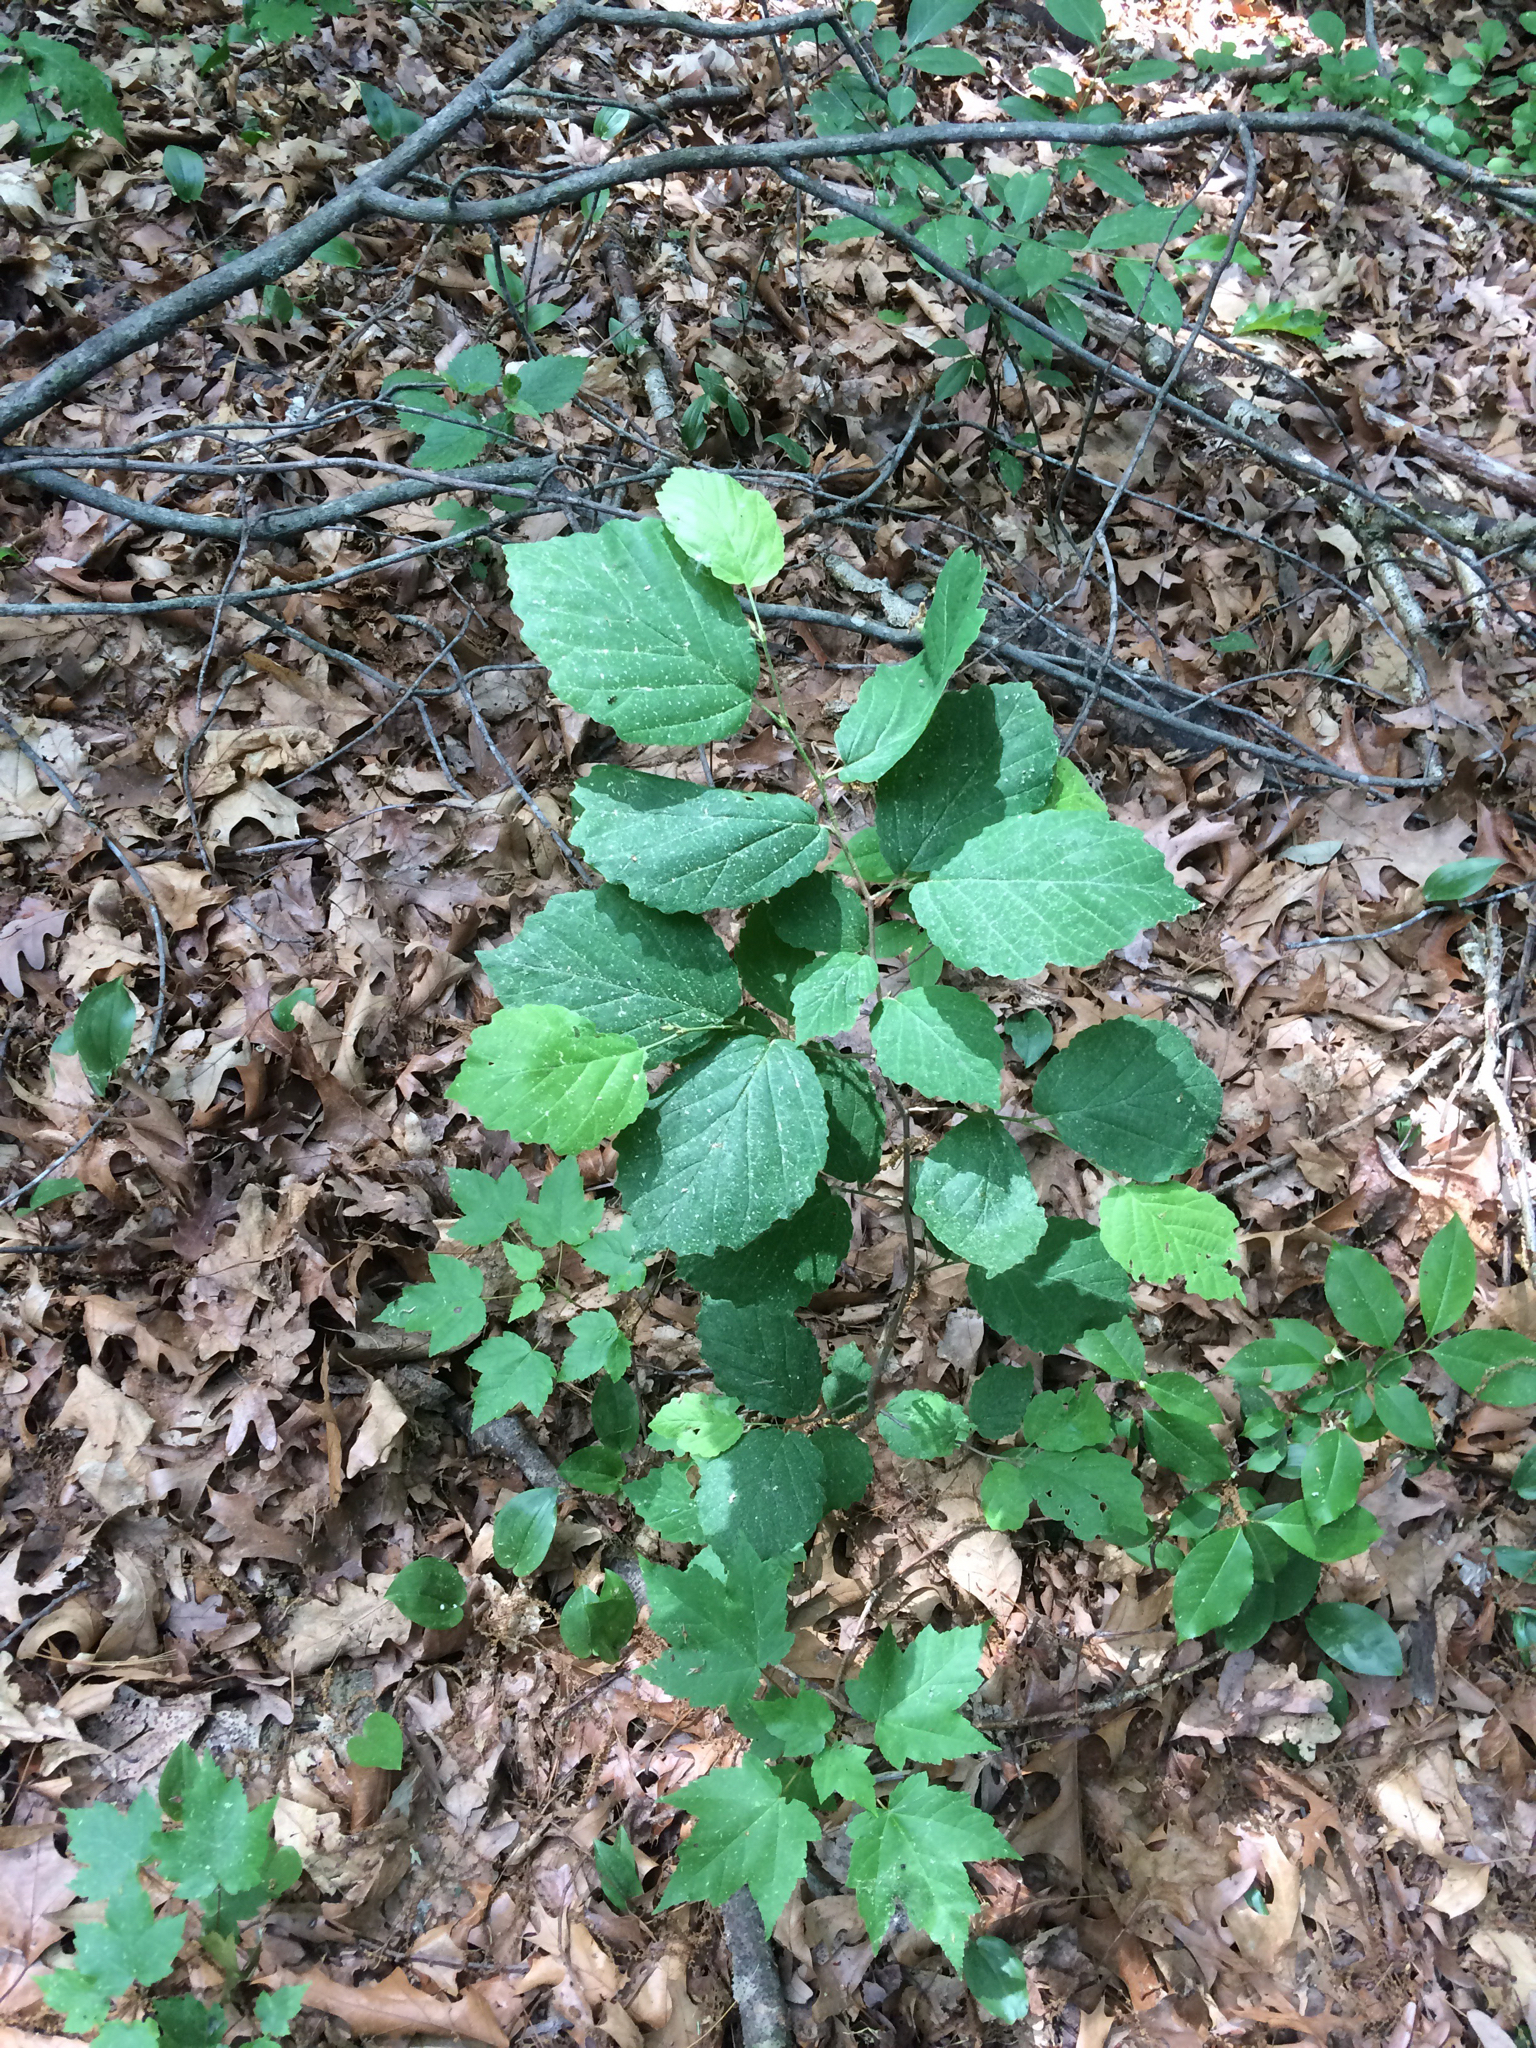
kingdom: Plantae
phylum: Tracheophyta
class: Magnoliopsida
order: Saxifragales
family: Hamamelidaceae
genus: Hamamelis
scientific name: Hamamelis virginiana
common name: Witch-hazel
